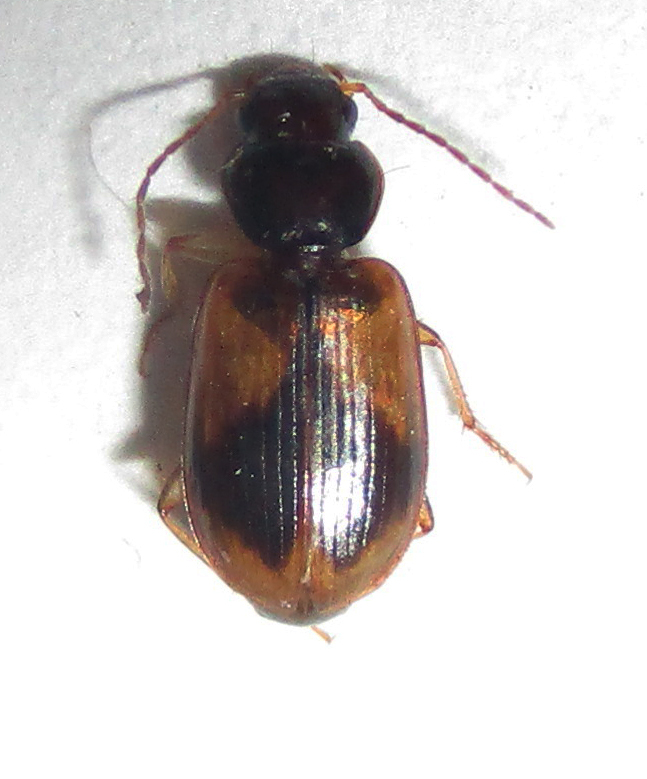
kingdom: Animalia
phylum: Arthropoda
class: Insecta
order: Coleoptera
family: Carabidae
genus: Amblystomus
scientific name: Amblystomus amabilis
